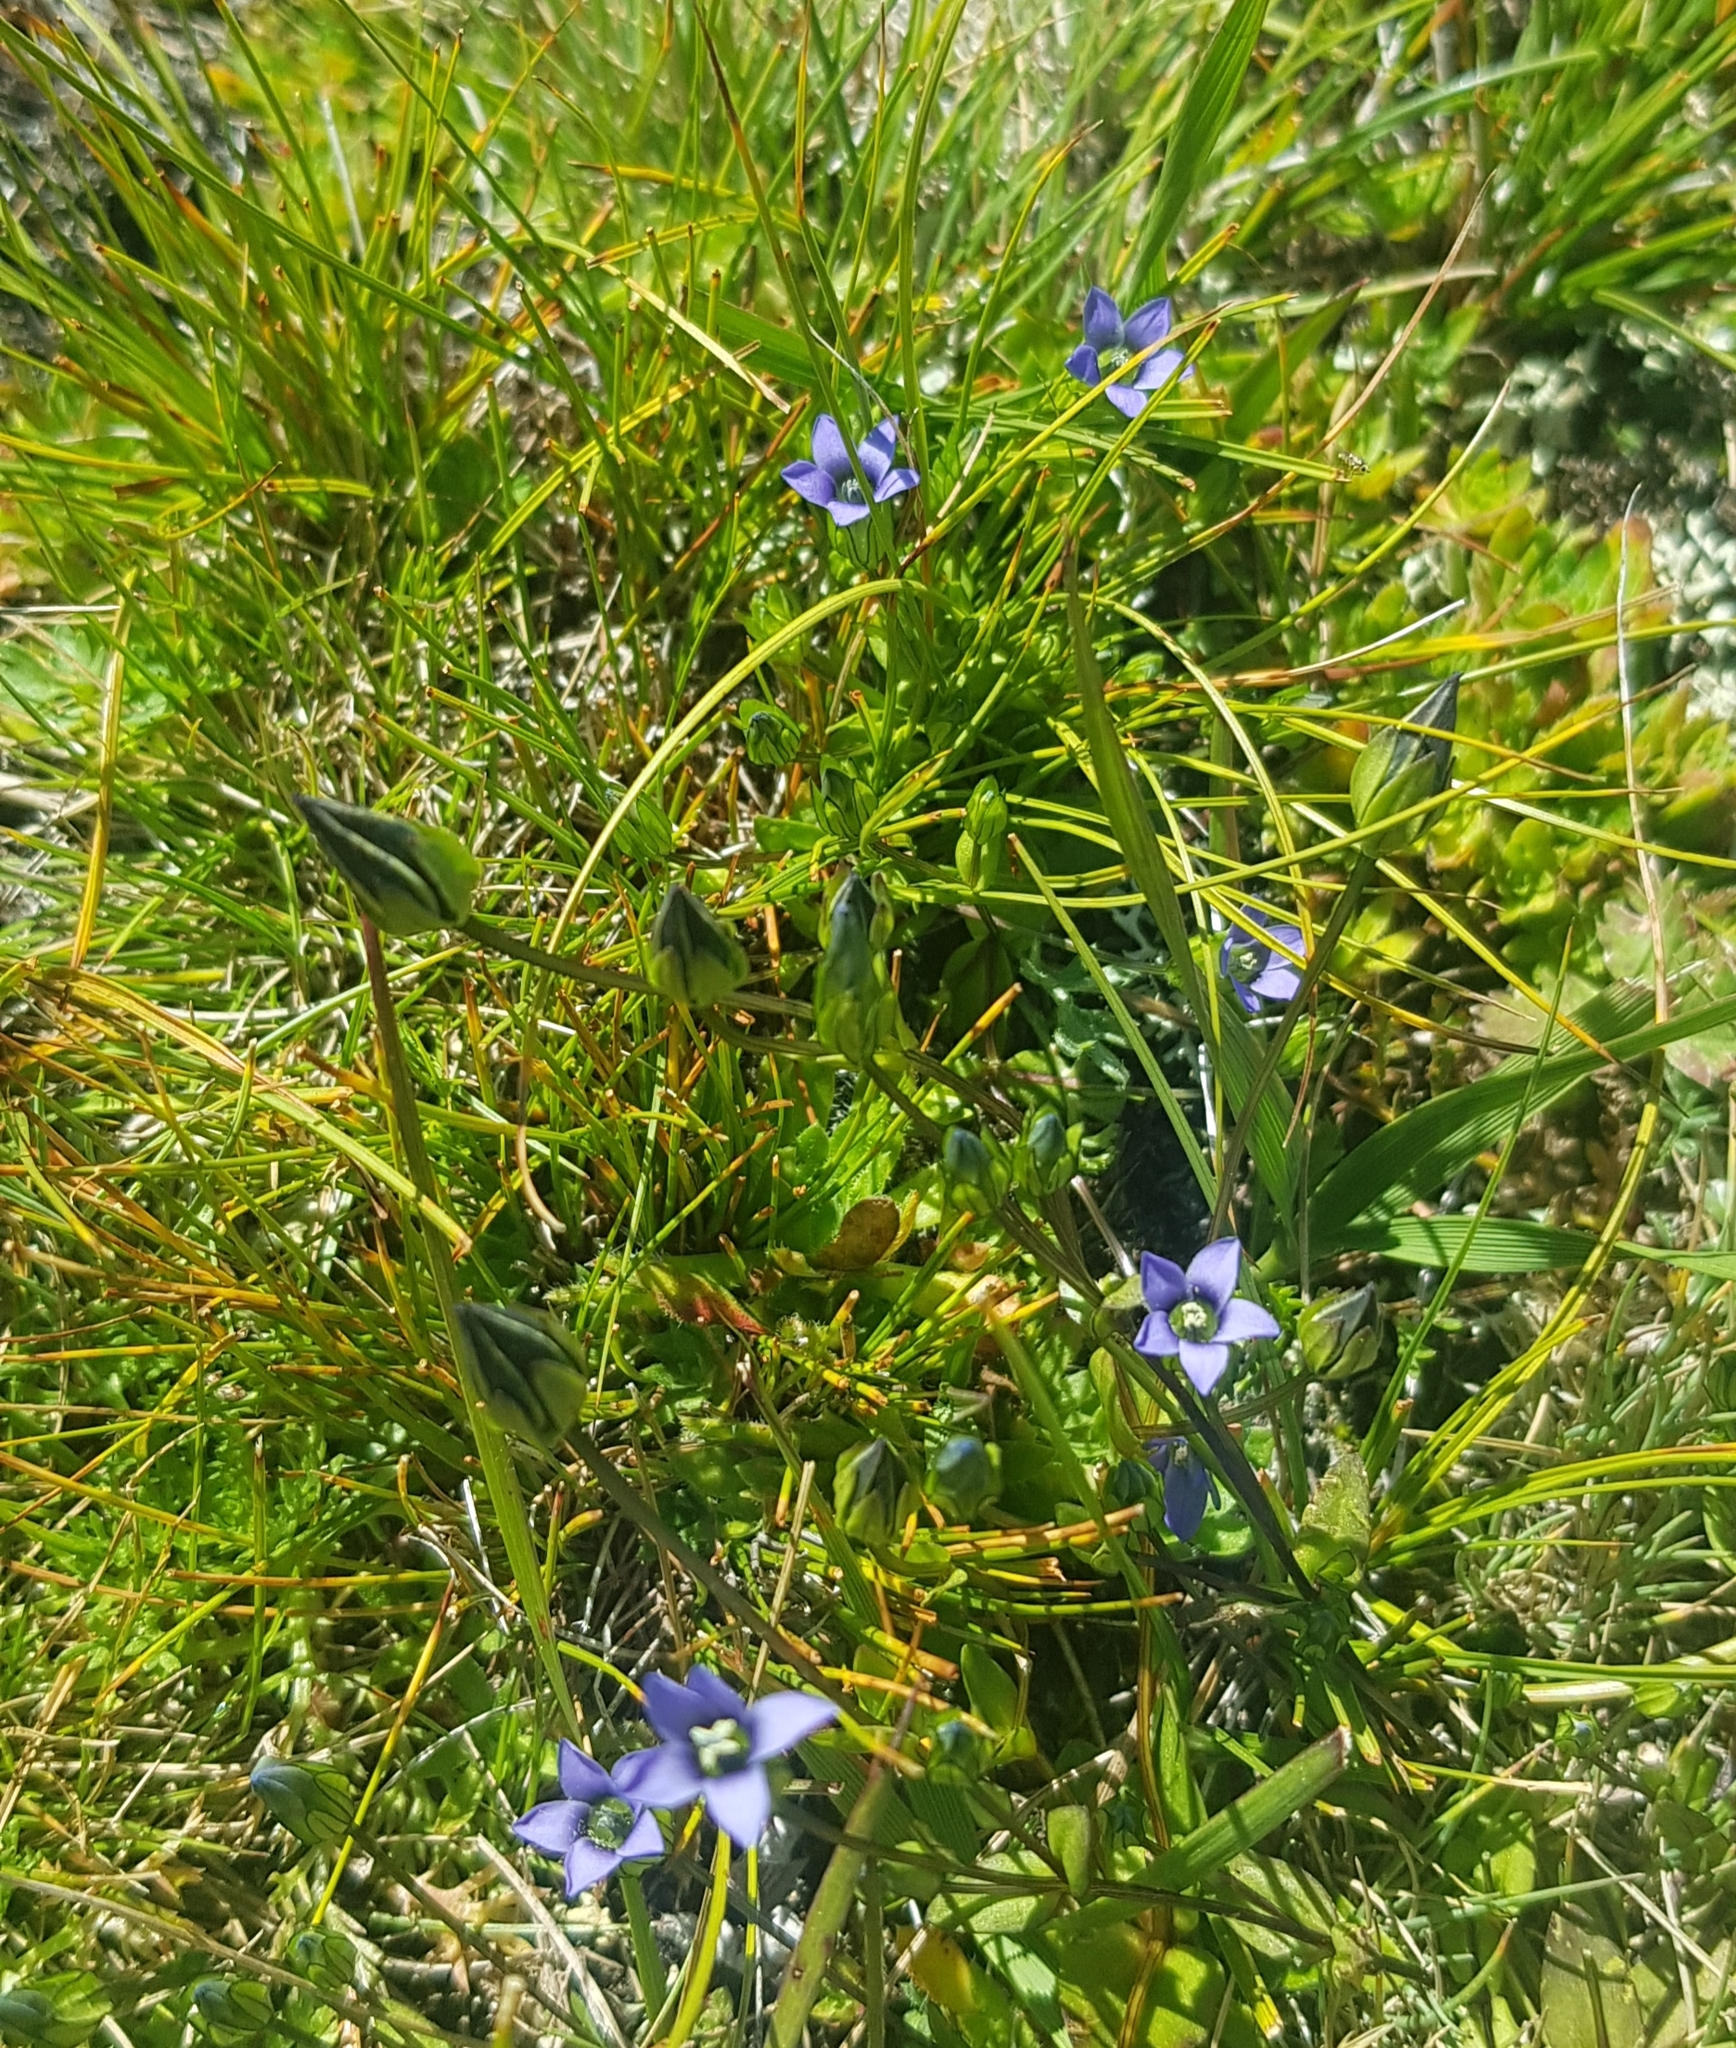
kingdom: Plantae
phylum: Tracheophyta
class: Magnoliopsida
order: Gentianales
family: Gentianaceae
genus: Comastoma
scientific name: Comastoma tenellum
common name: Dane's dwarf gentian
